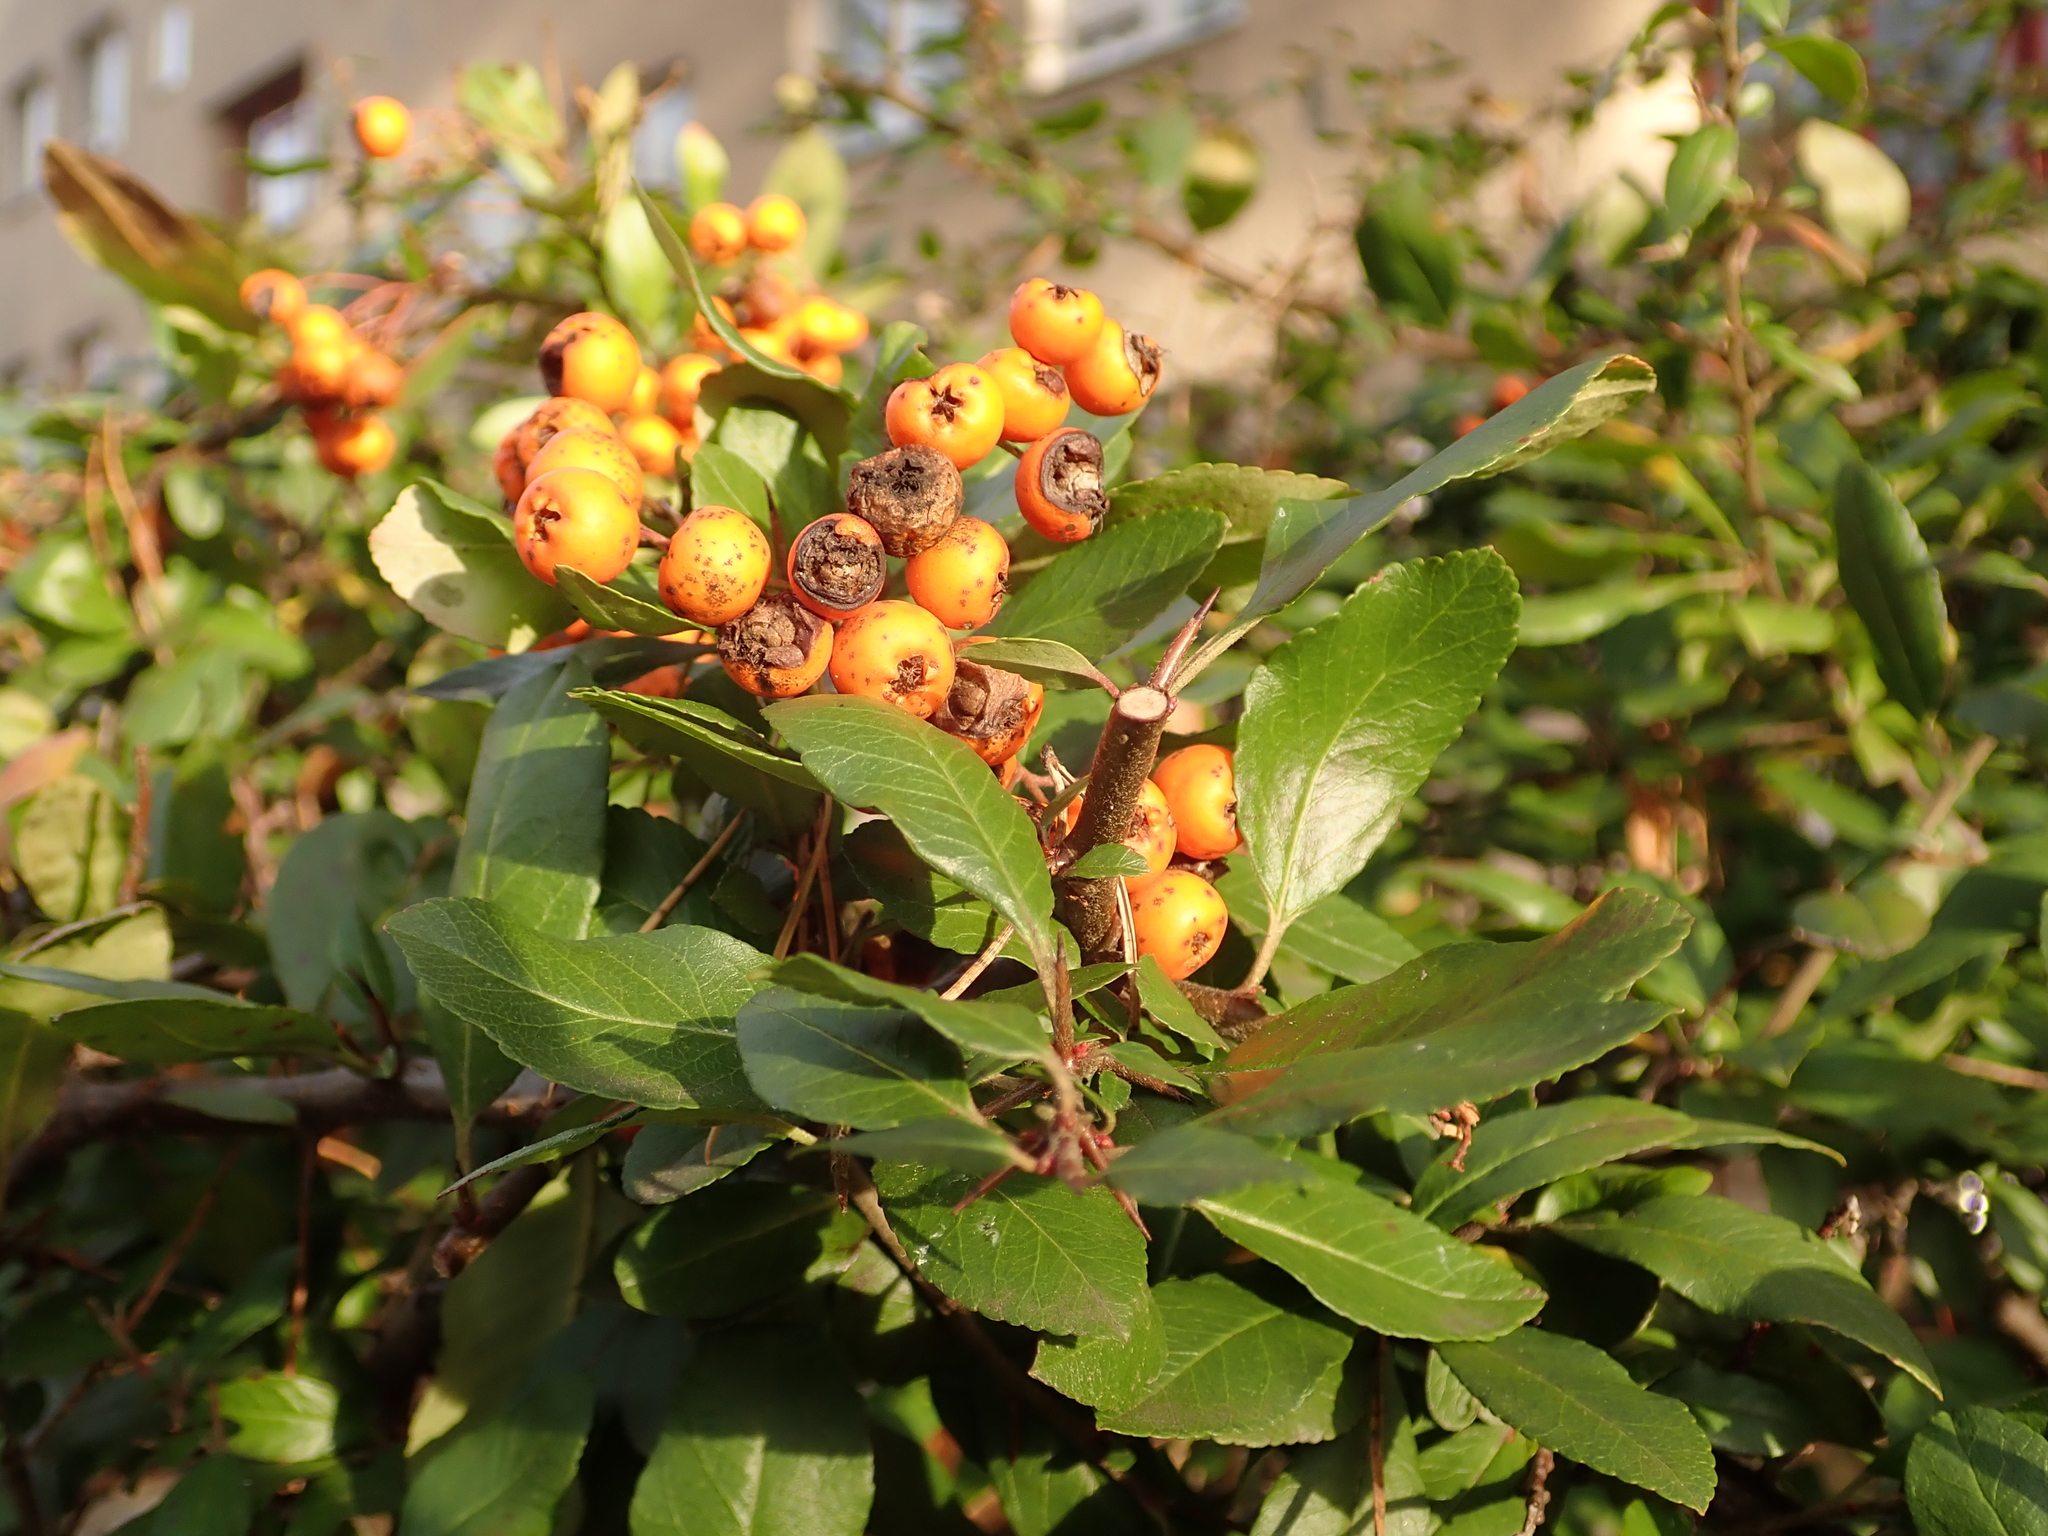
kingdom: Plantae
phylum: Tracheophyta
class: Magnoliopsida
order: Rosales
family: Rosaceae
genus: Pyracantha
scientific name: Pyracantha coccinea
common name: Firethorn
